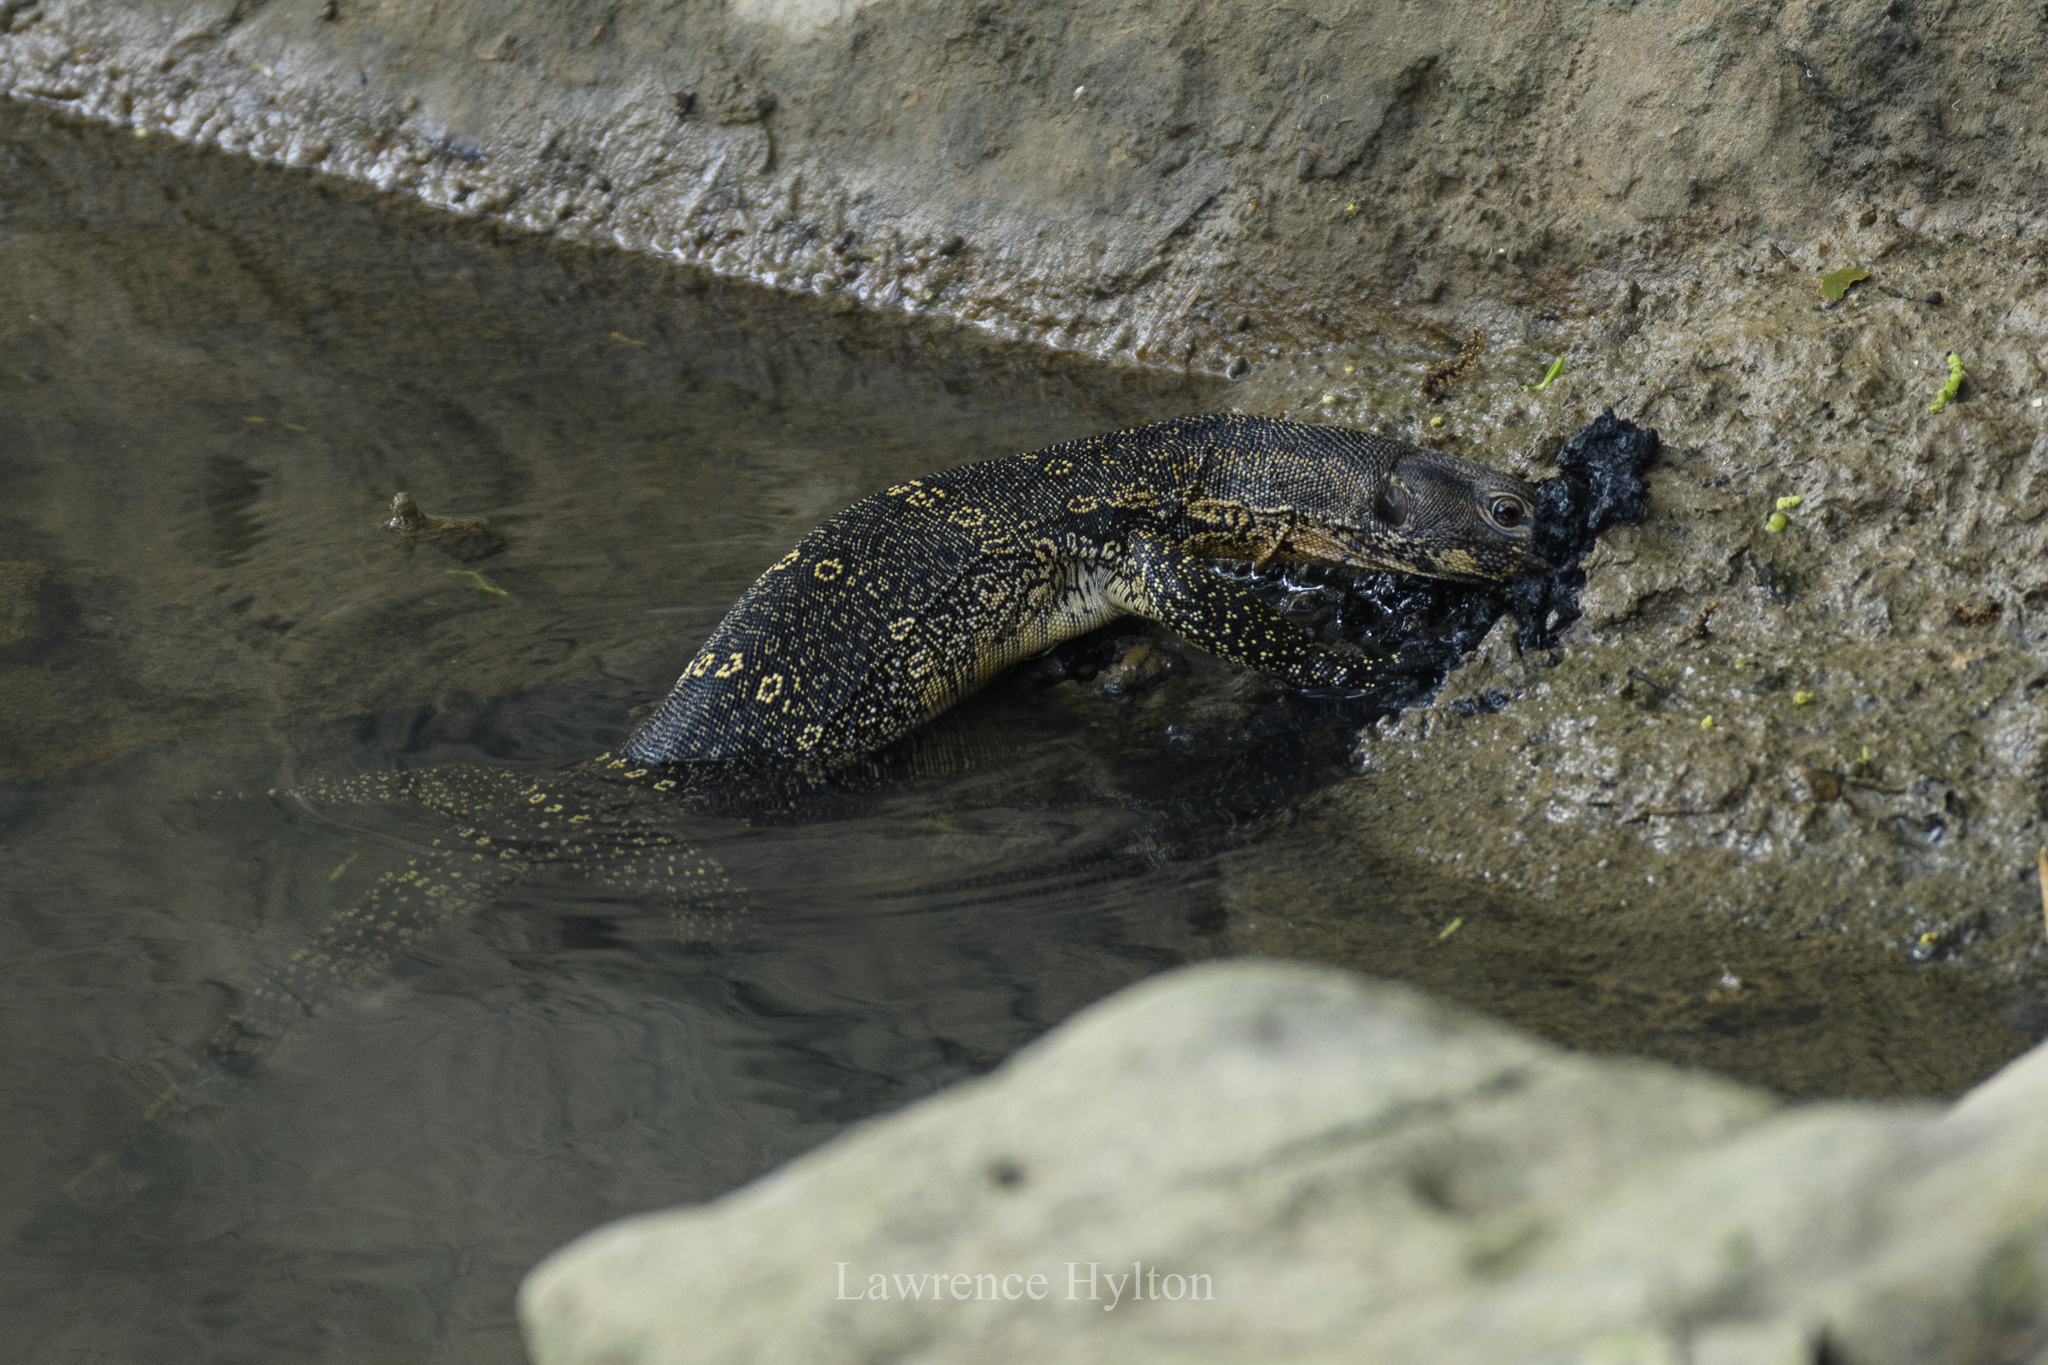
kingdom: Animalia
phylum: Chordata
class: Squamata
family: Varanidae
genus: Varanus
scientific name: Varanus salvator
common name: Common water monitor
